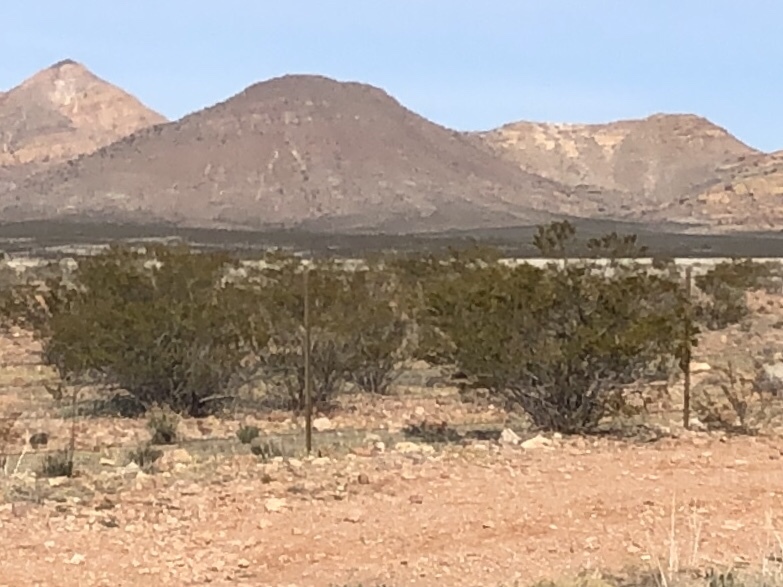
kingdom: Plantae
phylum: Tracheophyta
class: Magnoliopsida
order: Zygophyllales
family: Zygophyllaceae
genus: Larrea
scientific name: Larrea tridentata
